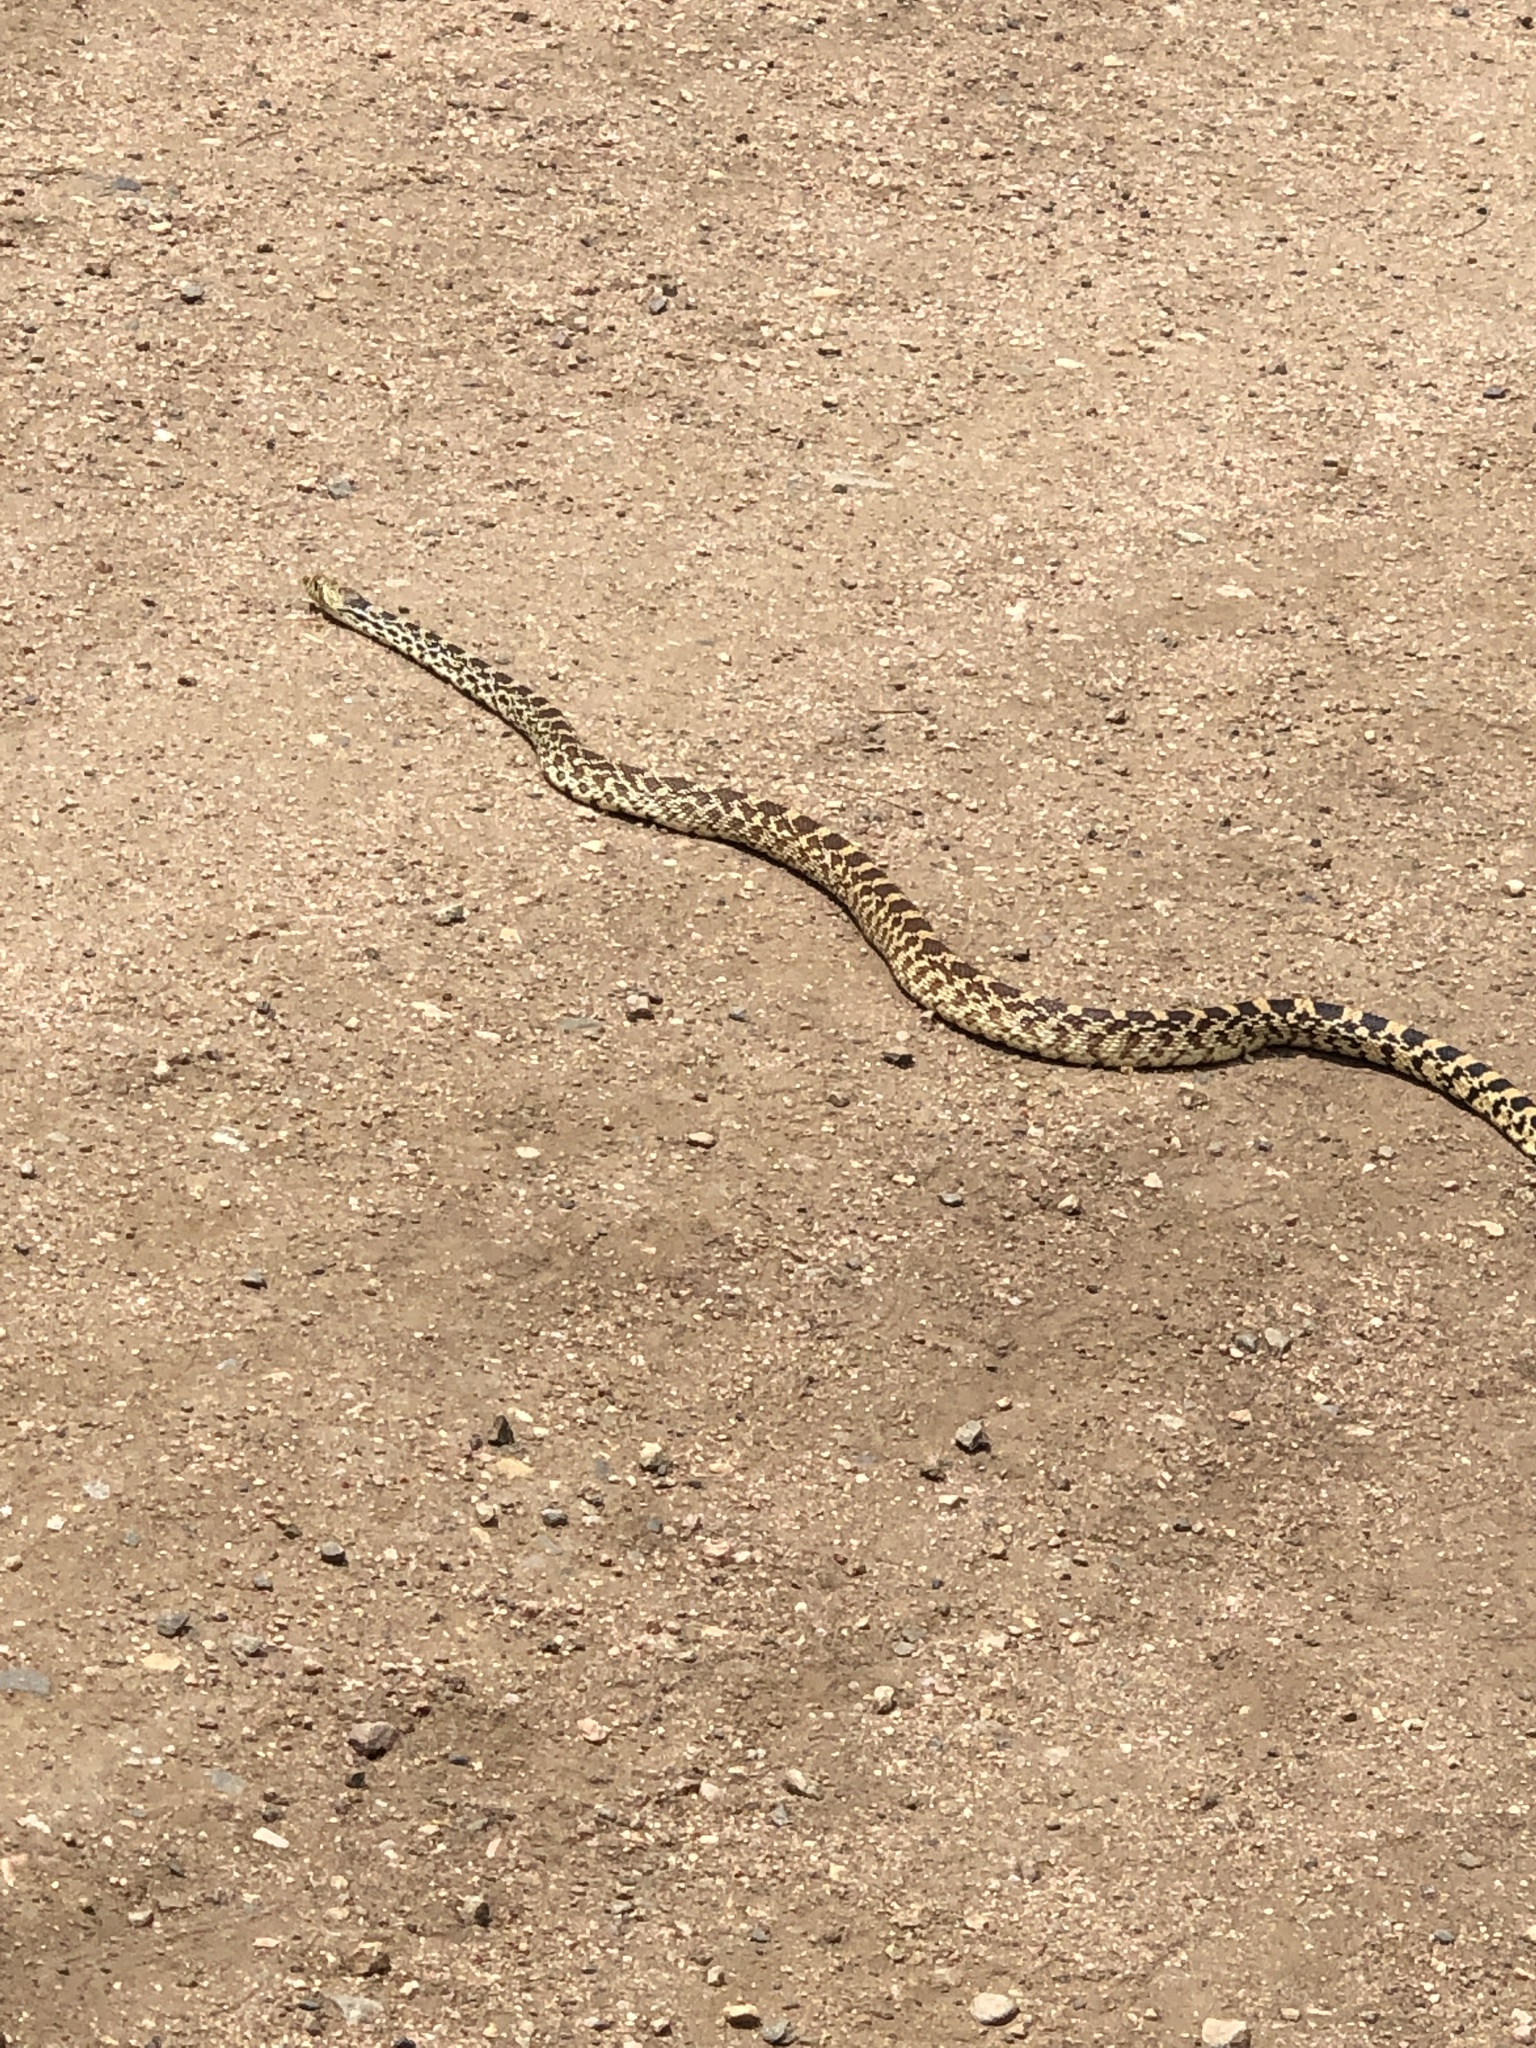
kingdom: Animalia
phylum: Chordata
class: Squamata
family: Colubridae
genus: Pituophis
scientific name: Pituophis catenifer
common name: Gopher snake
